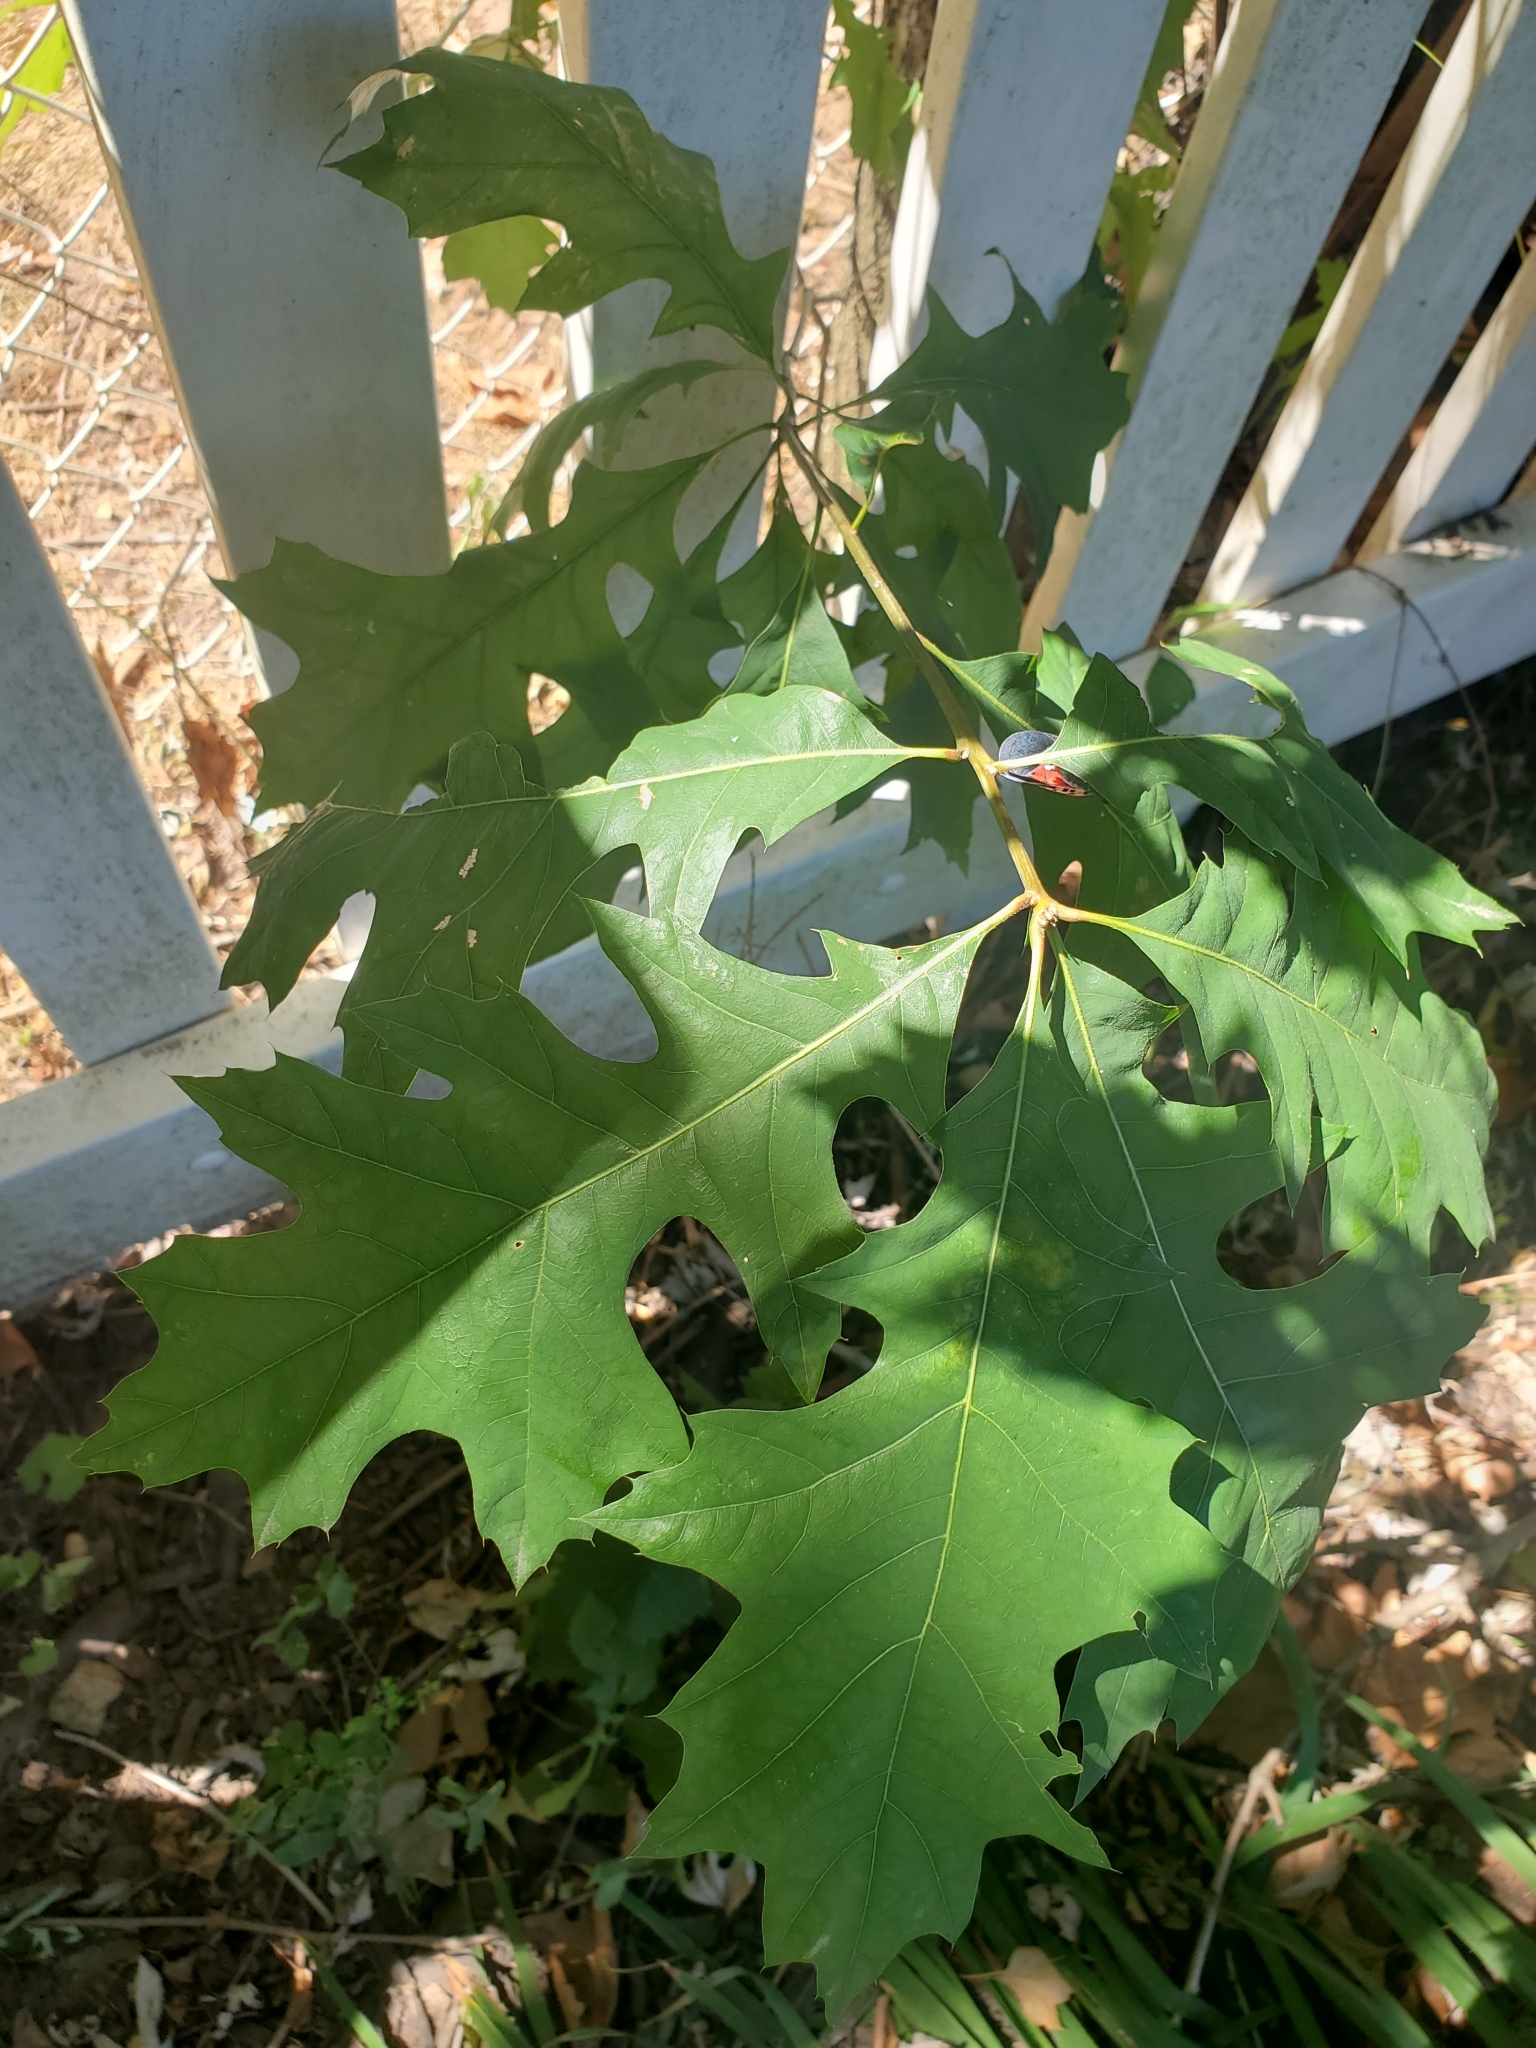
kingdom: Plantae
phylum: Tracheophyta
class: Magnoliopsida
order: Fagales
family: Fagaceae
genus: Quercus
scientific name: Quercus palustris
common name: Pin oak
